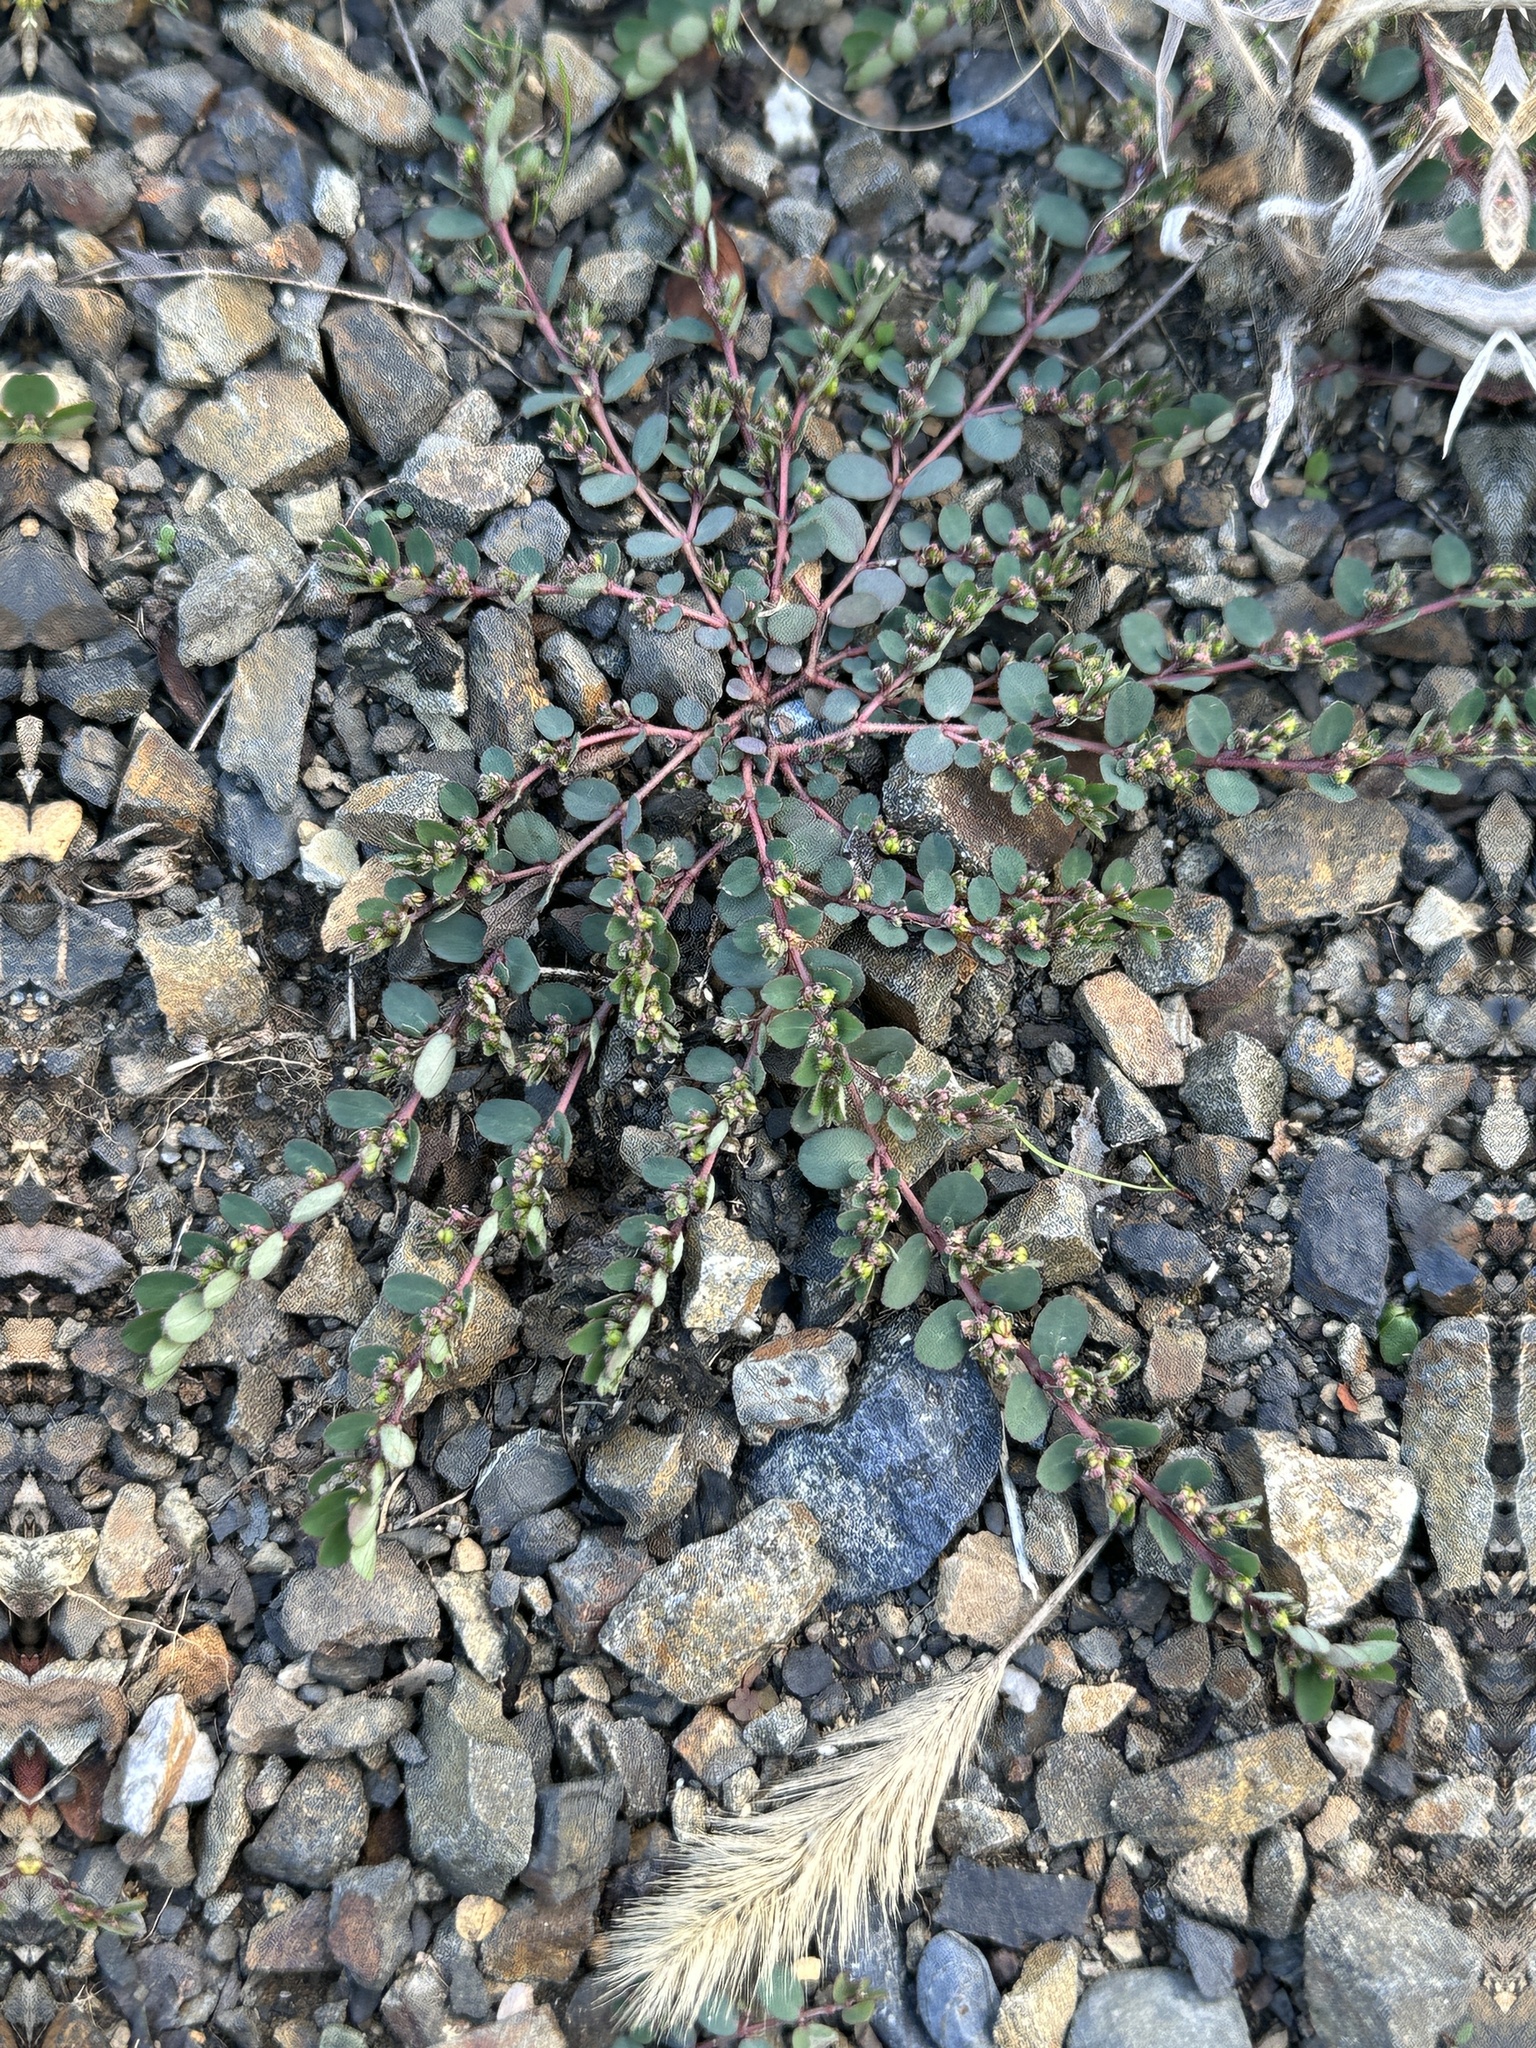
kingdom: Plantae
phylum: Tracheophyta
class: Magnoliopsida
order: Malpighiales
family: Euphorbiaceae
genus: Euphorbia
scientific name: Euphorbia prostrata
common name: Prostrate sandmat
